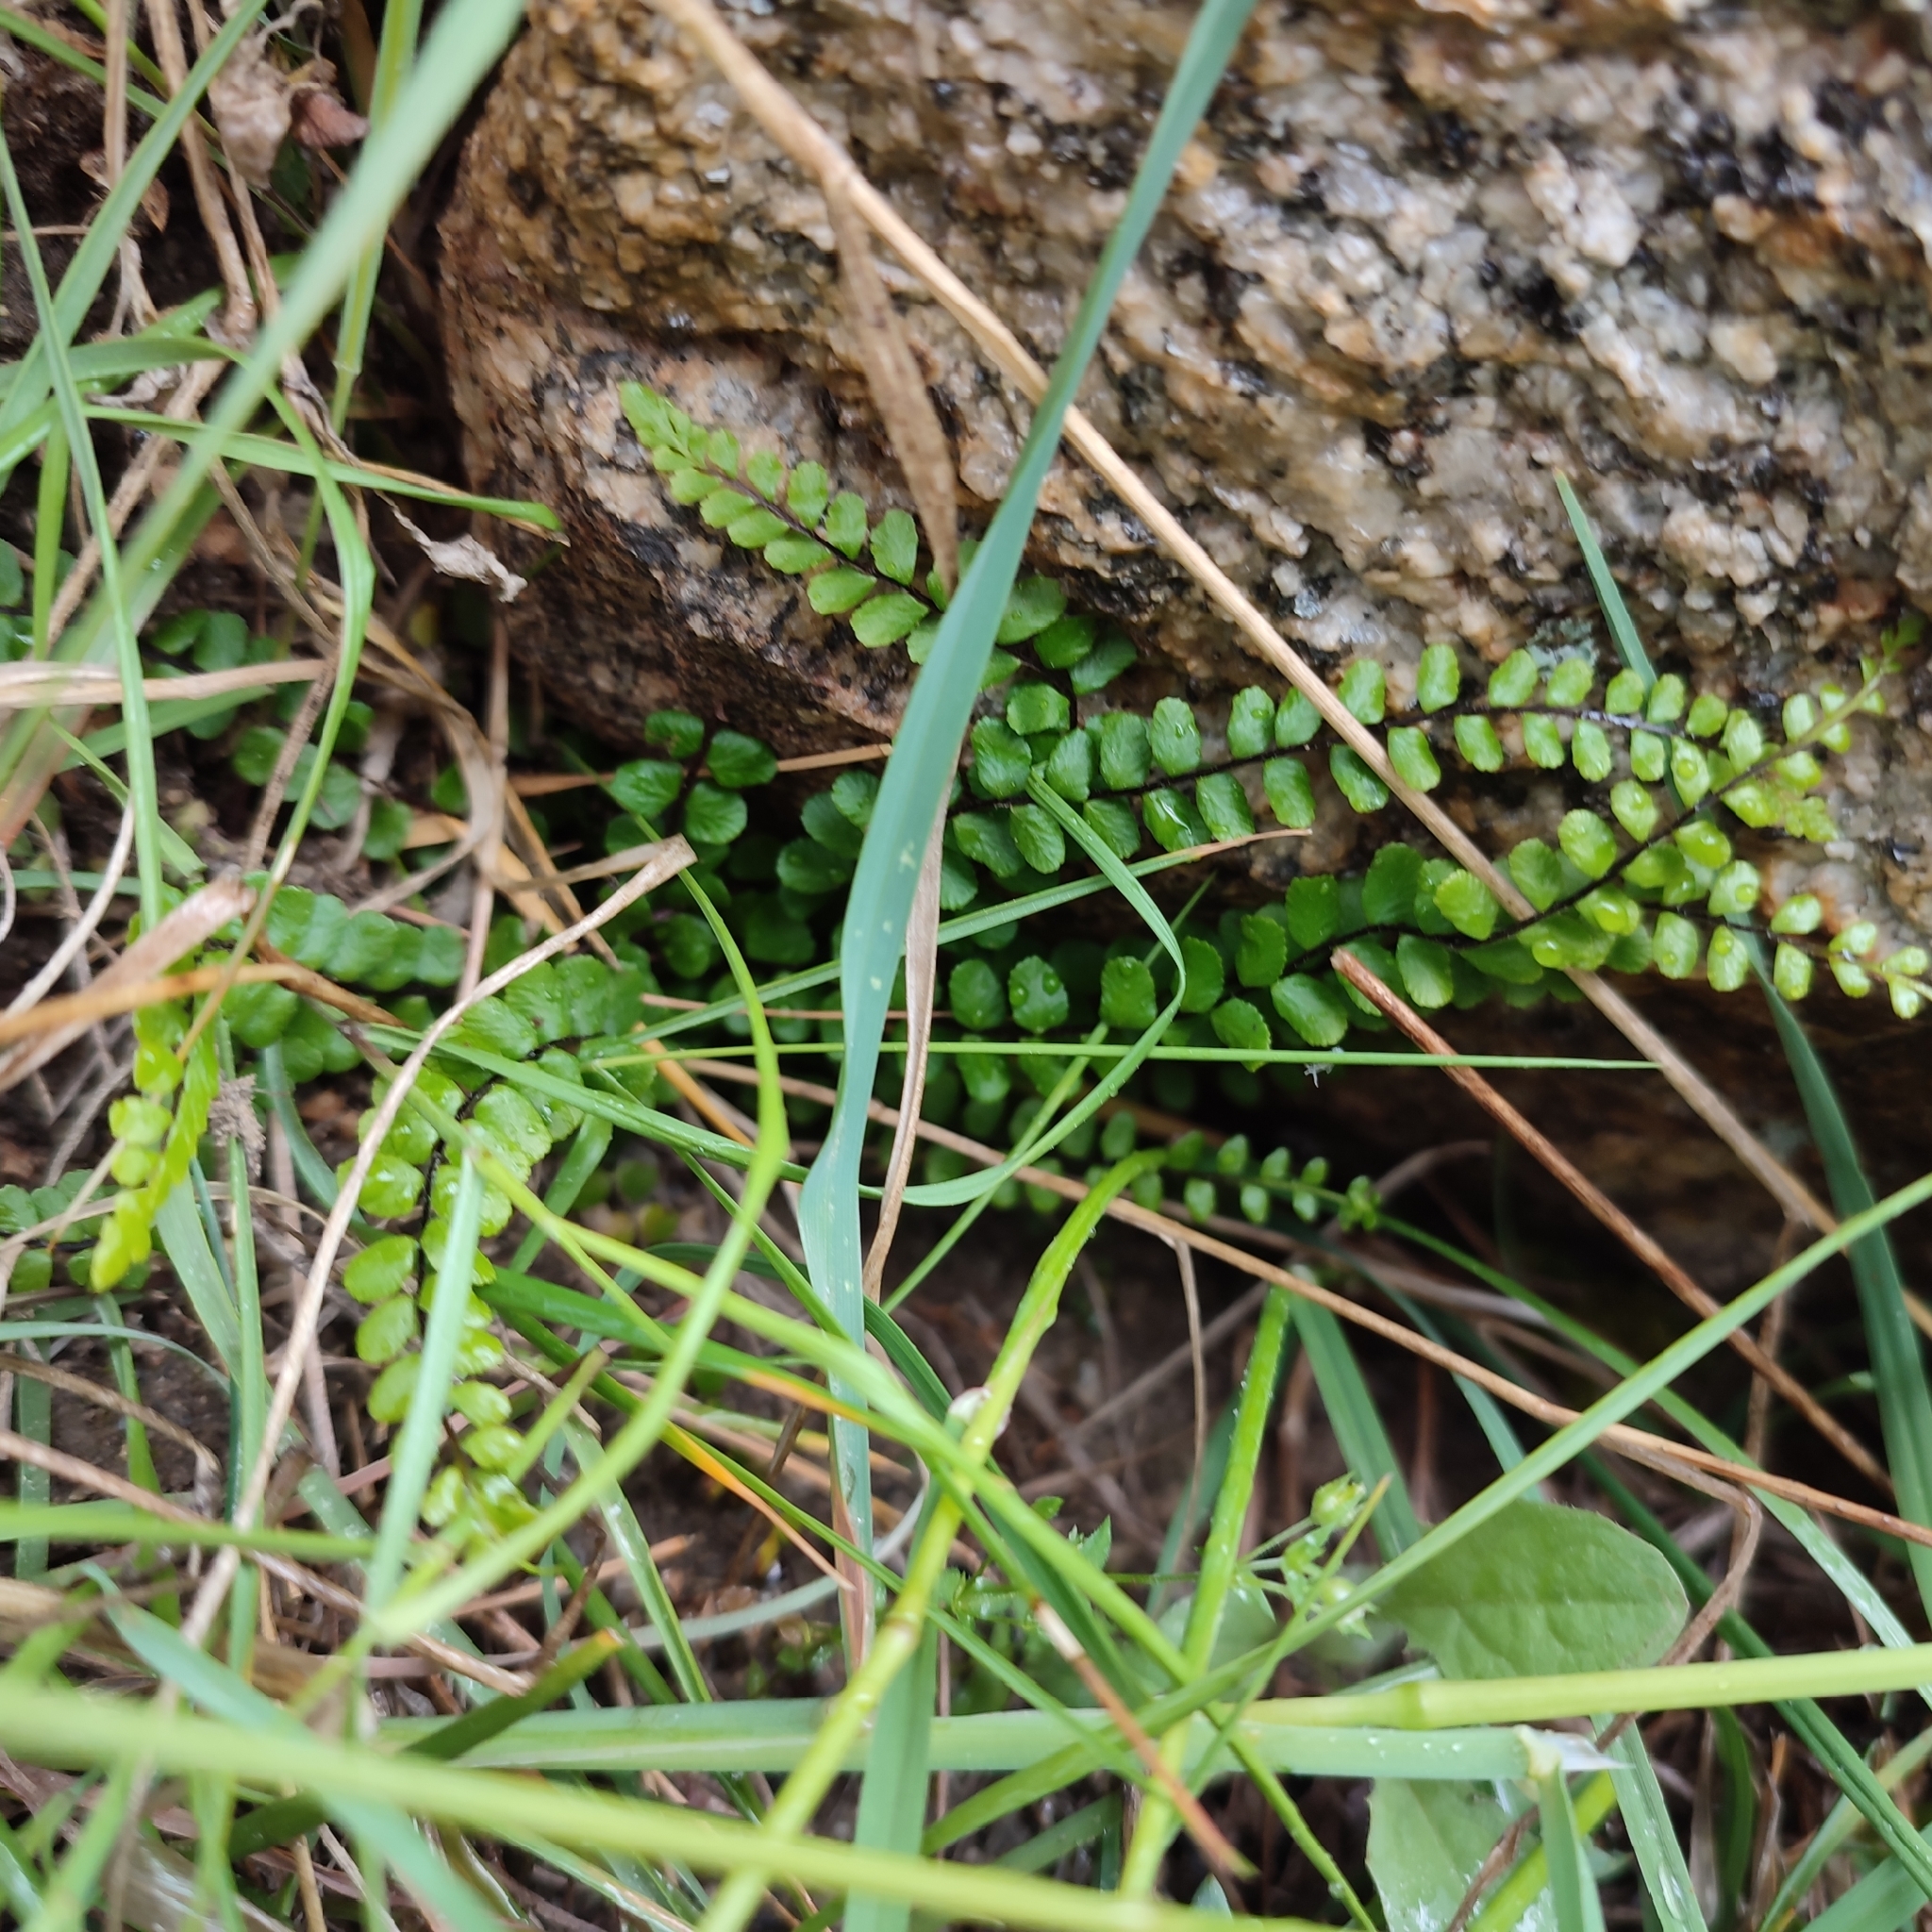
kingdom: Plantae
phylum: Tracheophyta
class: Polypodiopsida
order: Polypodiales
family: Aspleniaceae
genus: Asplenium
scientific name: Asplenium trichomanes
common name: Maidenhair spleenwort
